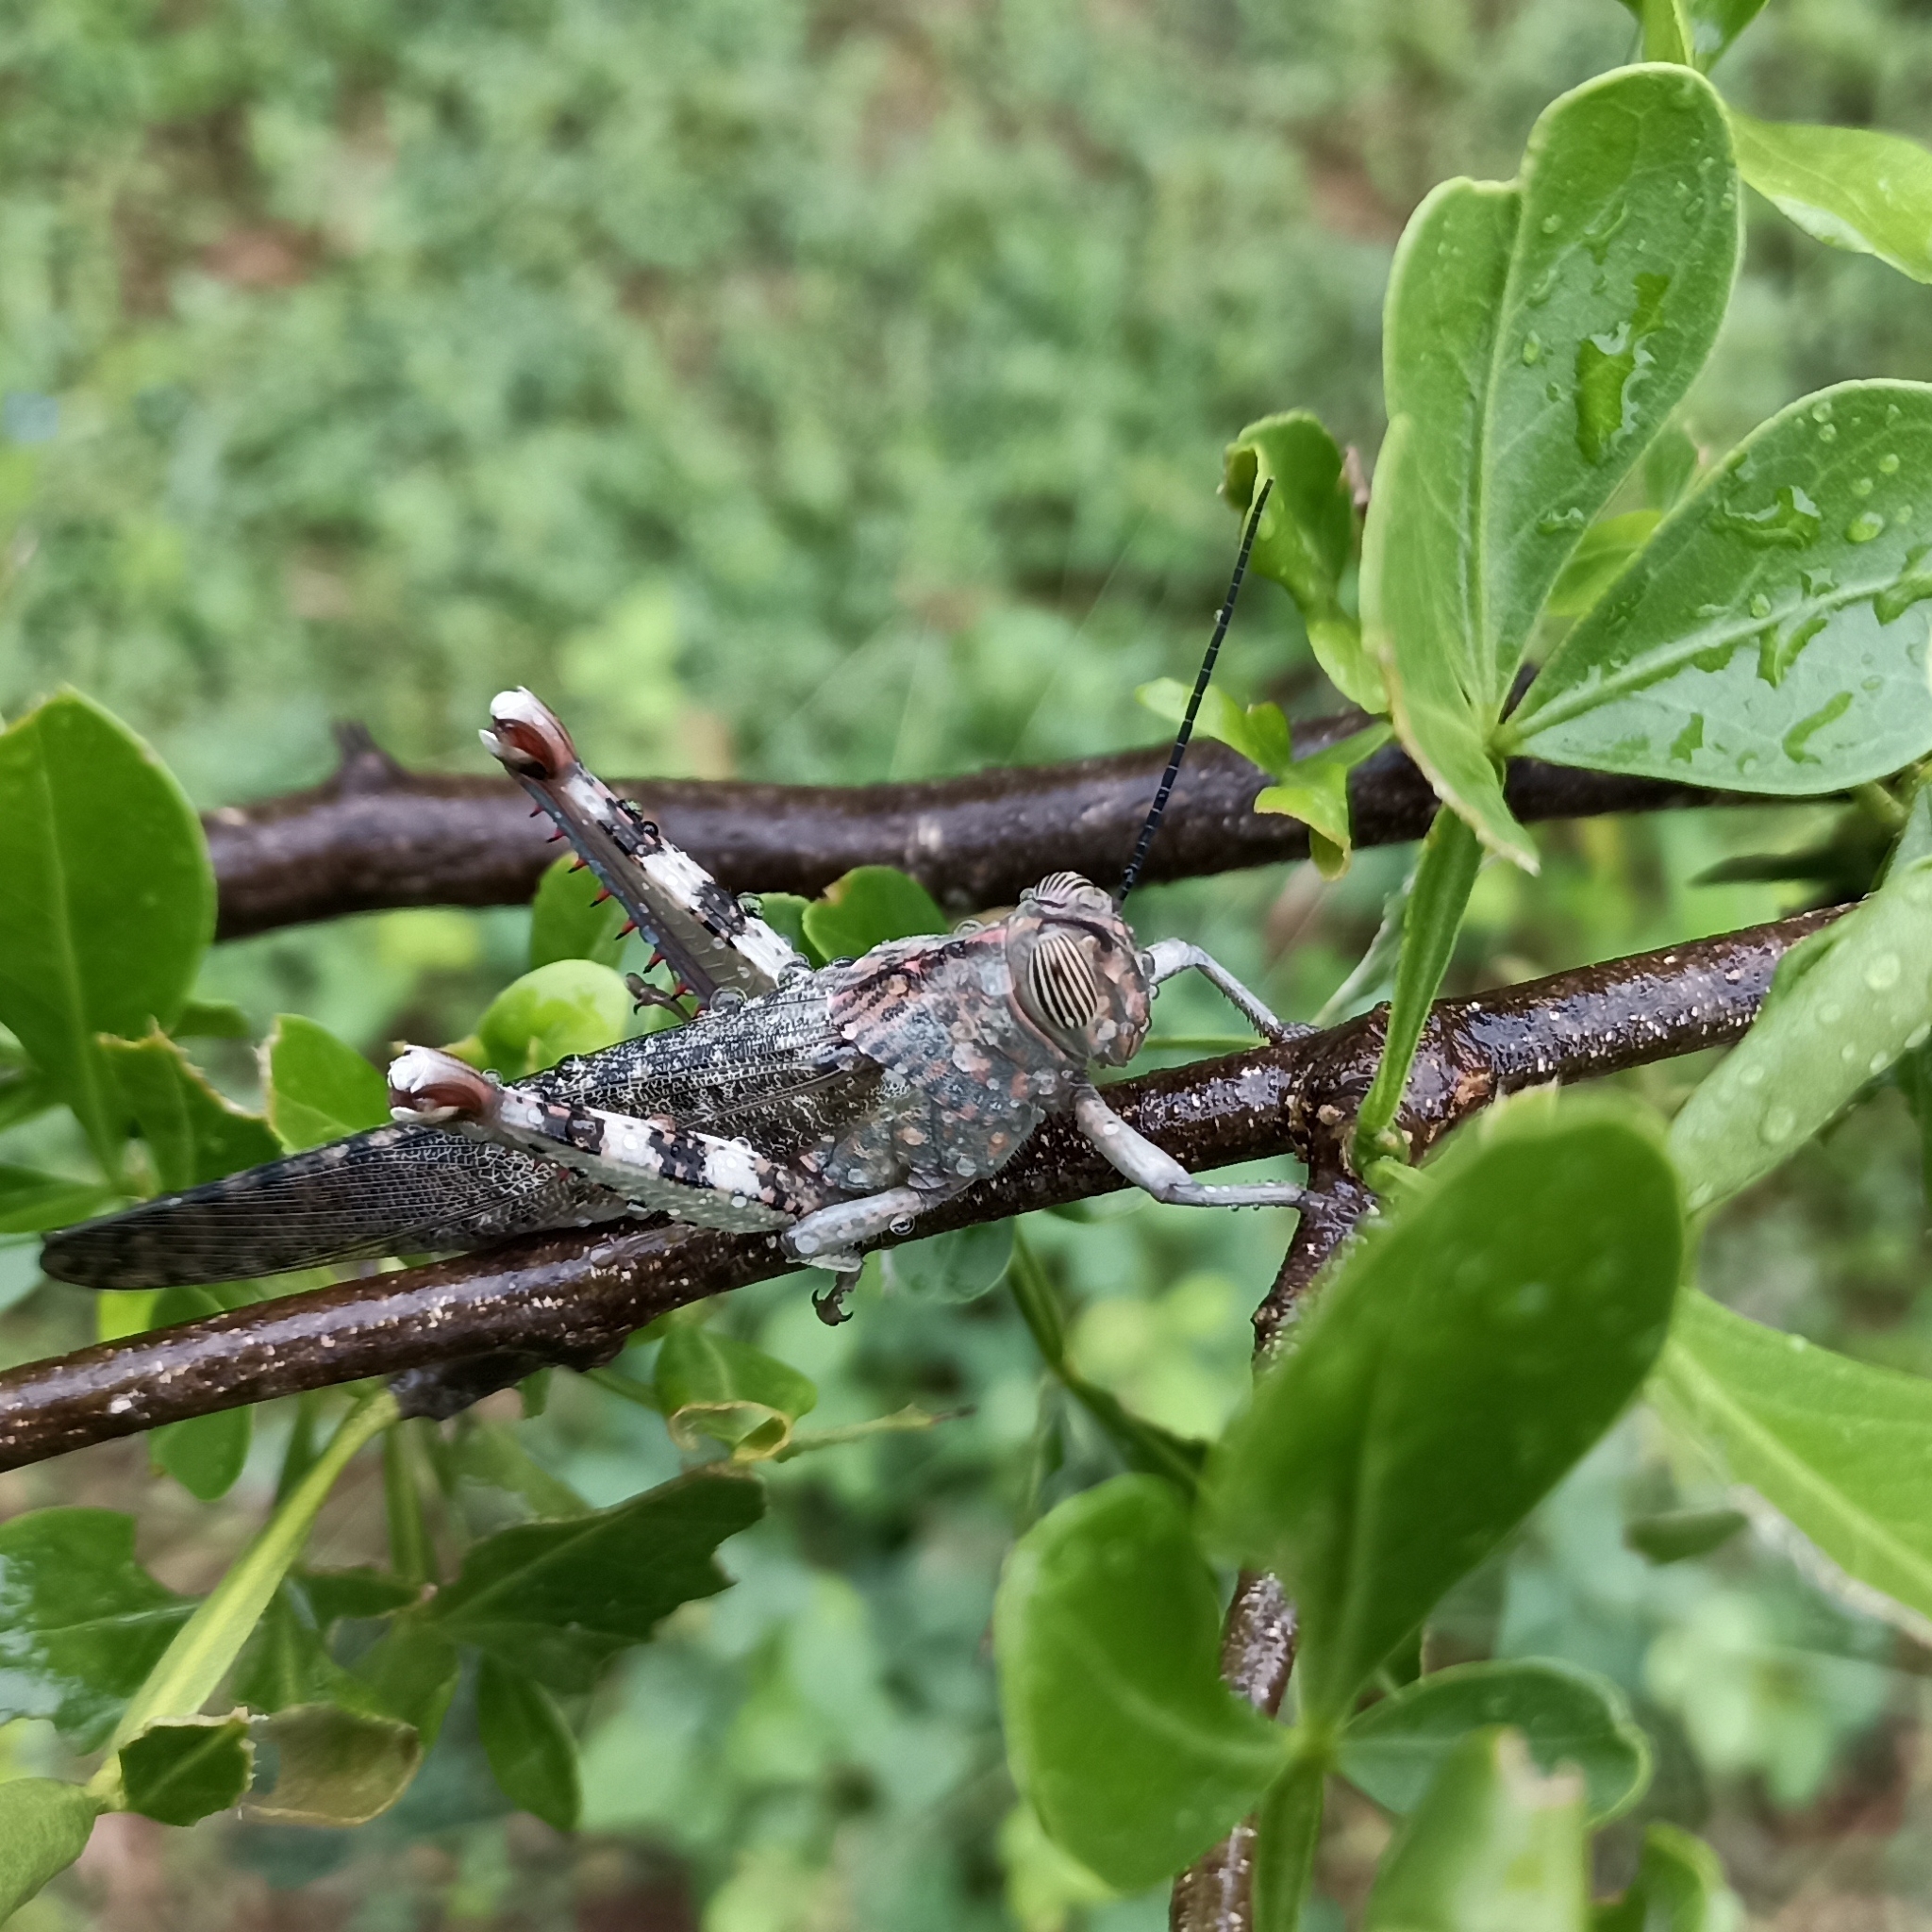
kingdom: Animalia
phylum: Arthropoda
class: Insecta
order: Orthoptera
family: Acrididae
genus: Anacridium
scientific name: Anacridium flavescens
